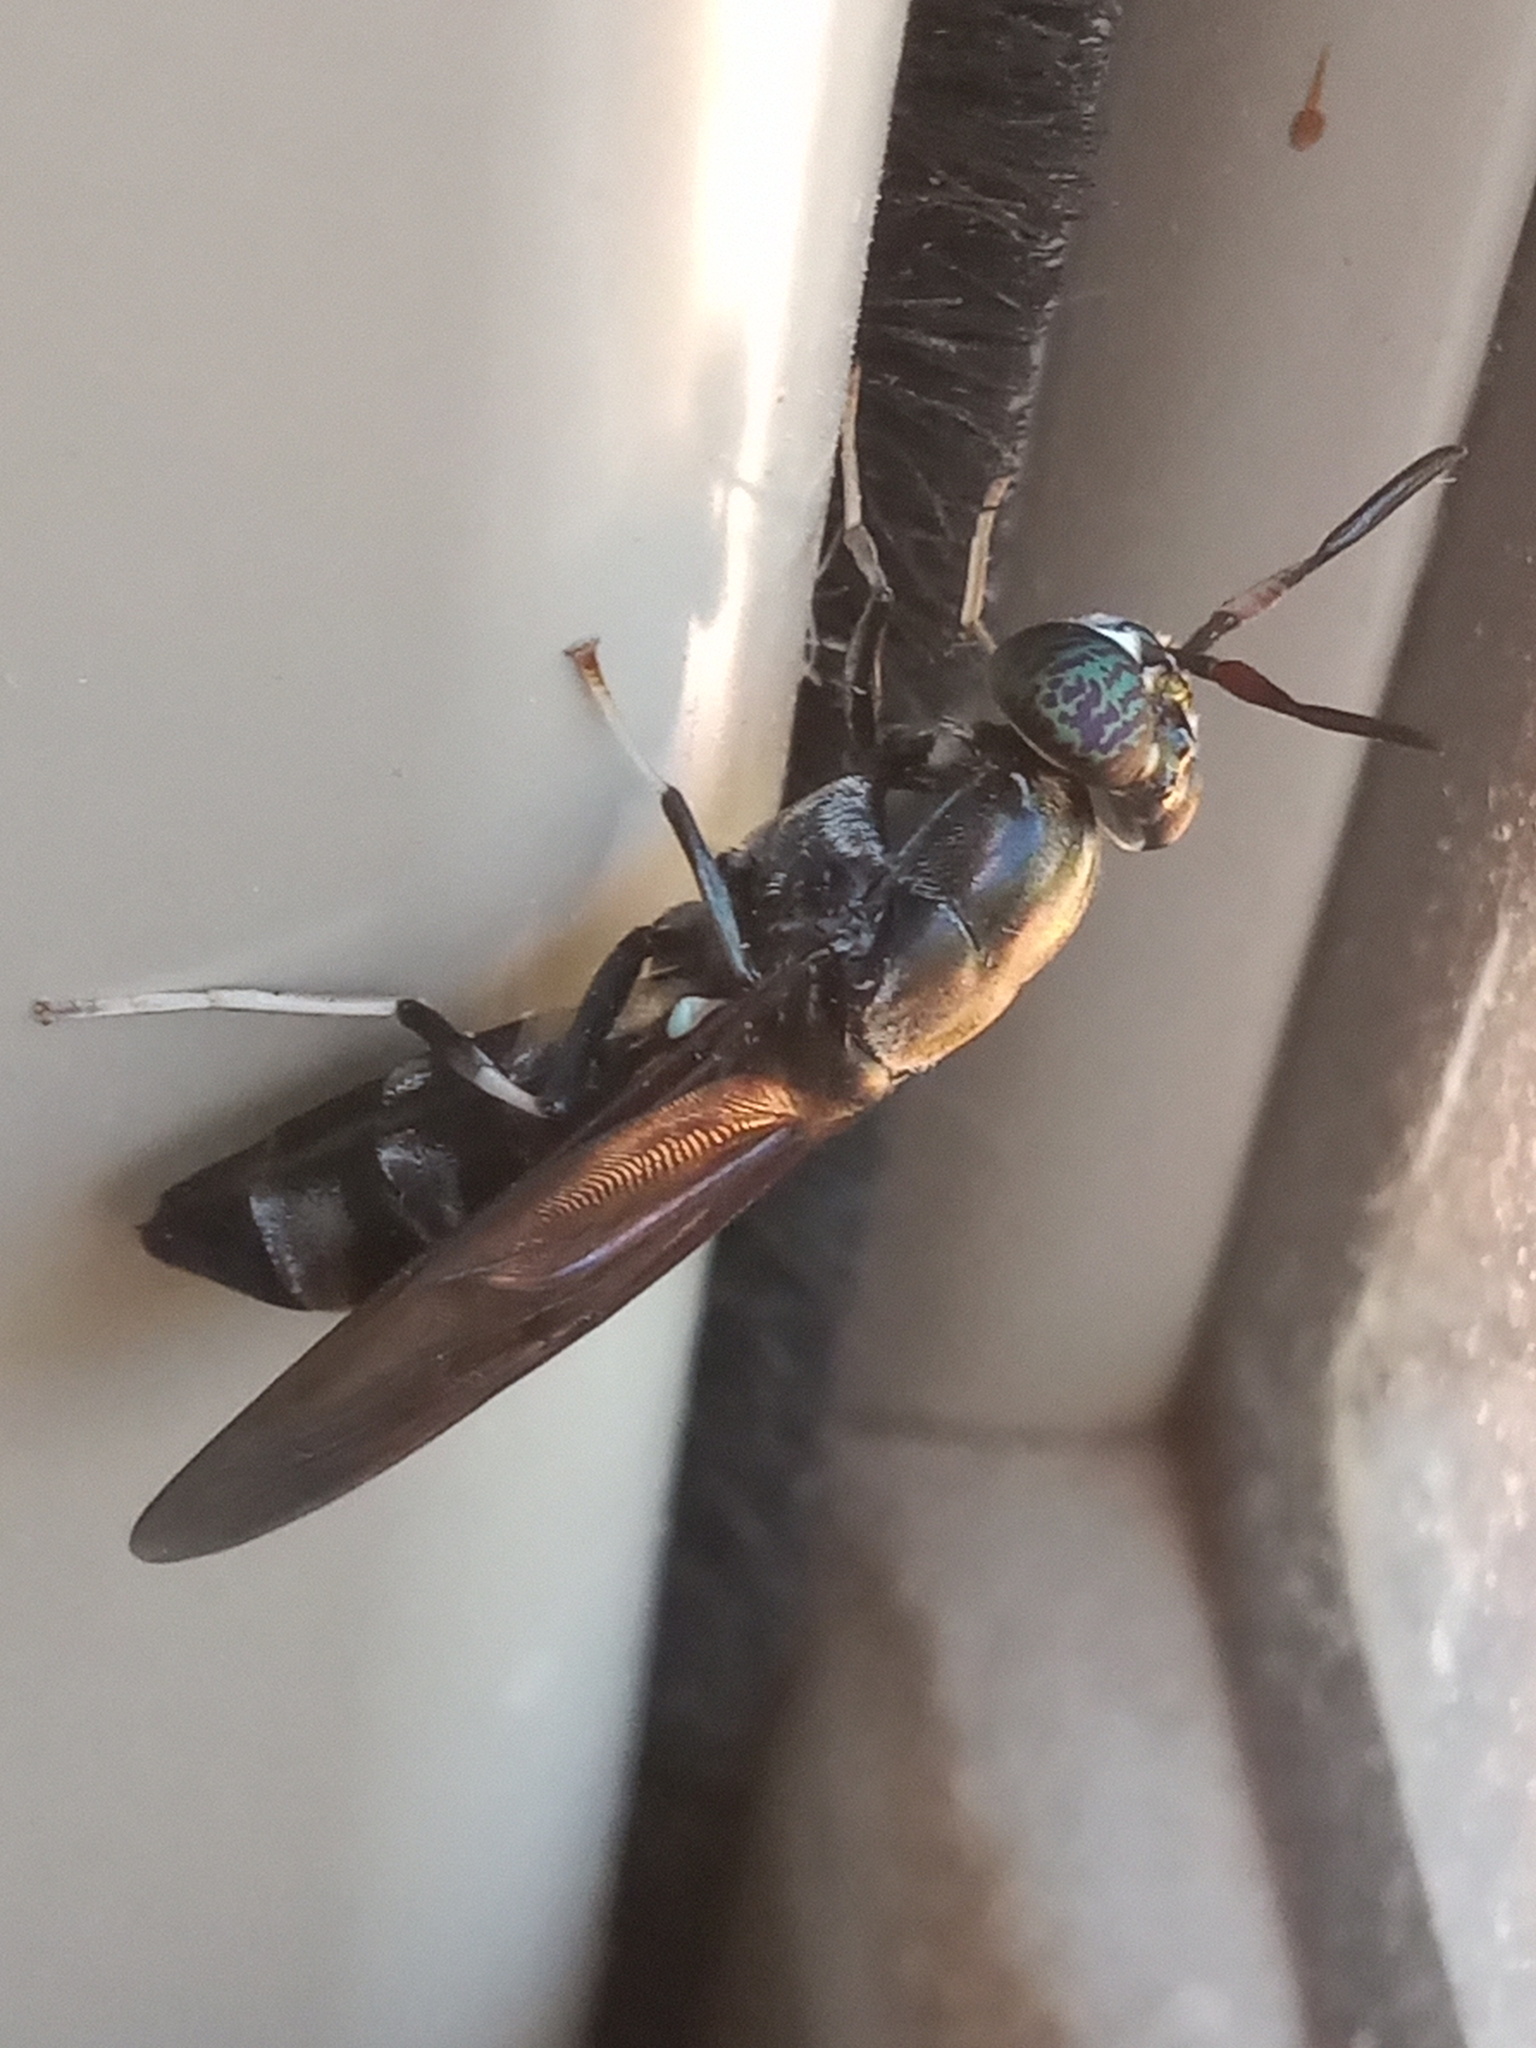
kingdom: Animalia
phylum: Arthropoda
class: Insecta
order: Diptera
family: Stratiomyidae
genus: Hermetia
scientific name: Hermetia illucens
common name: Black soldier fly
